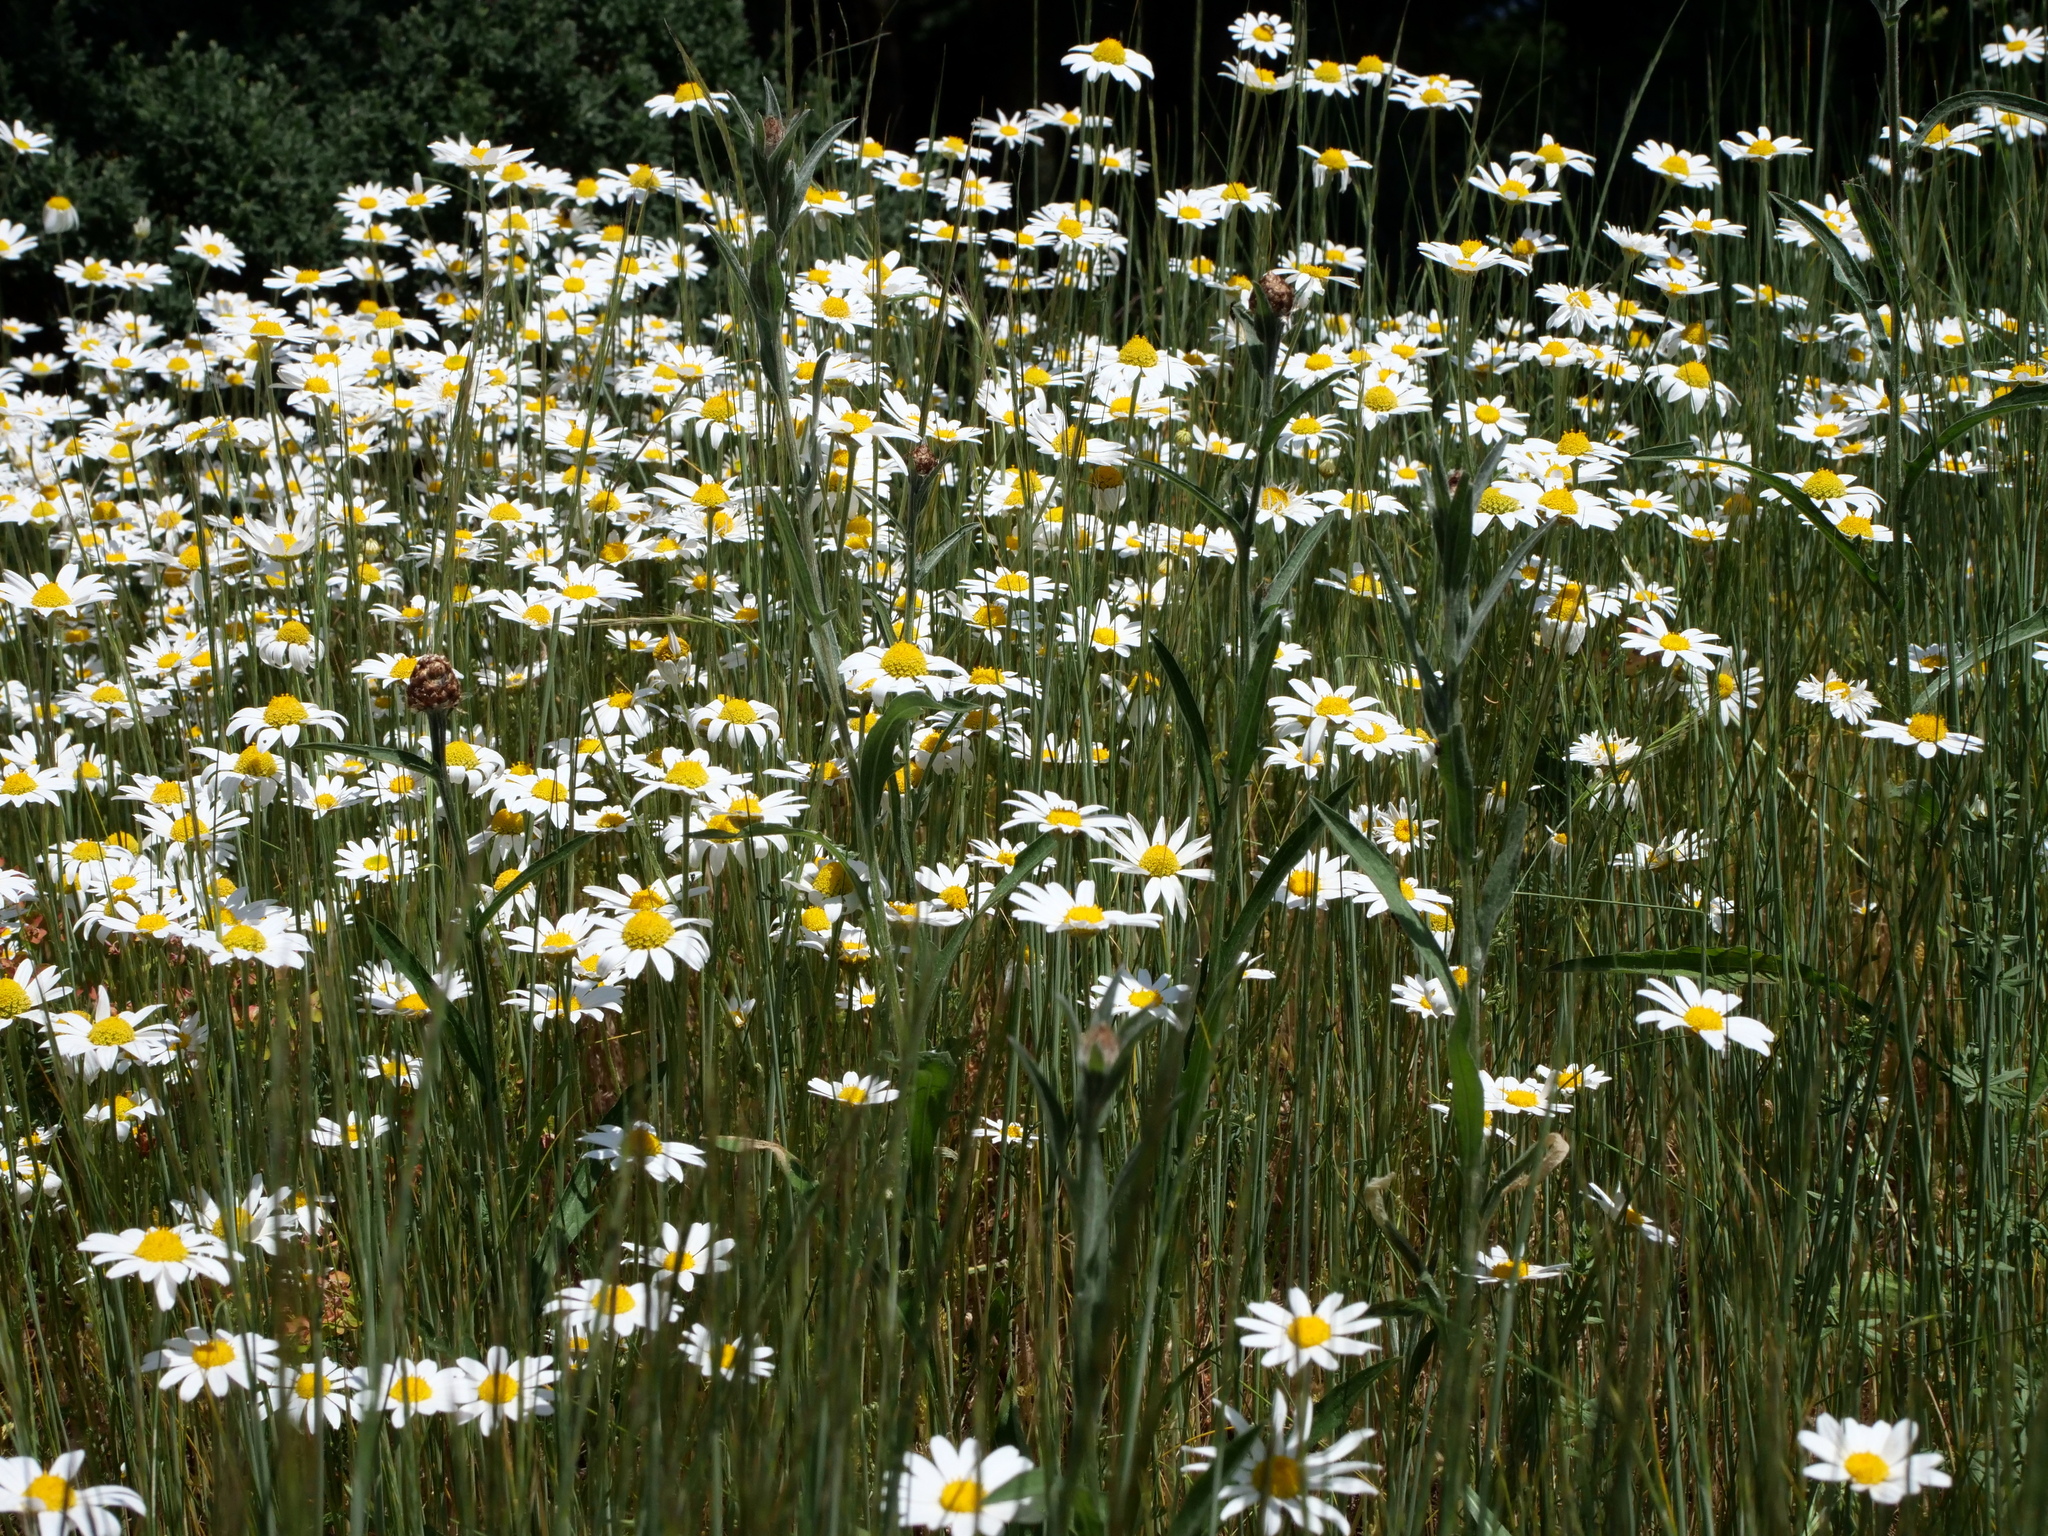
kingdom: Plantae
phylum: Tracheophyta
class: Magnoliopsida
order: Asterales
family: Asteraceae
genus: Anthemis
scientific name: Anthemis arvensis
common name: Corn chamomile
